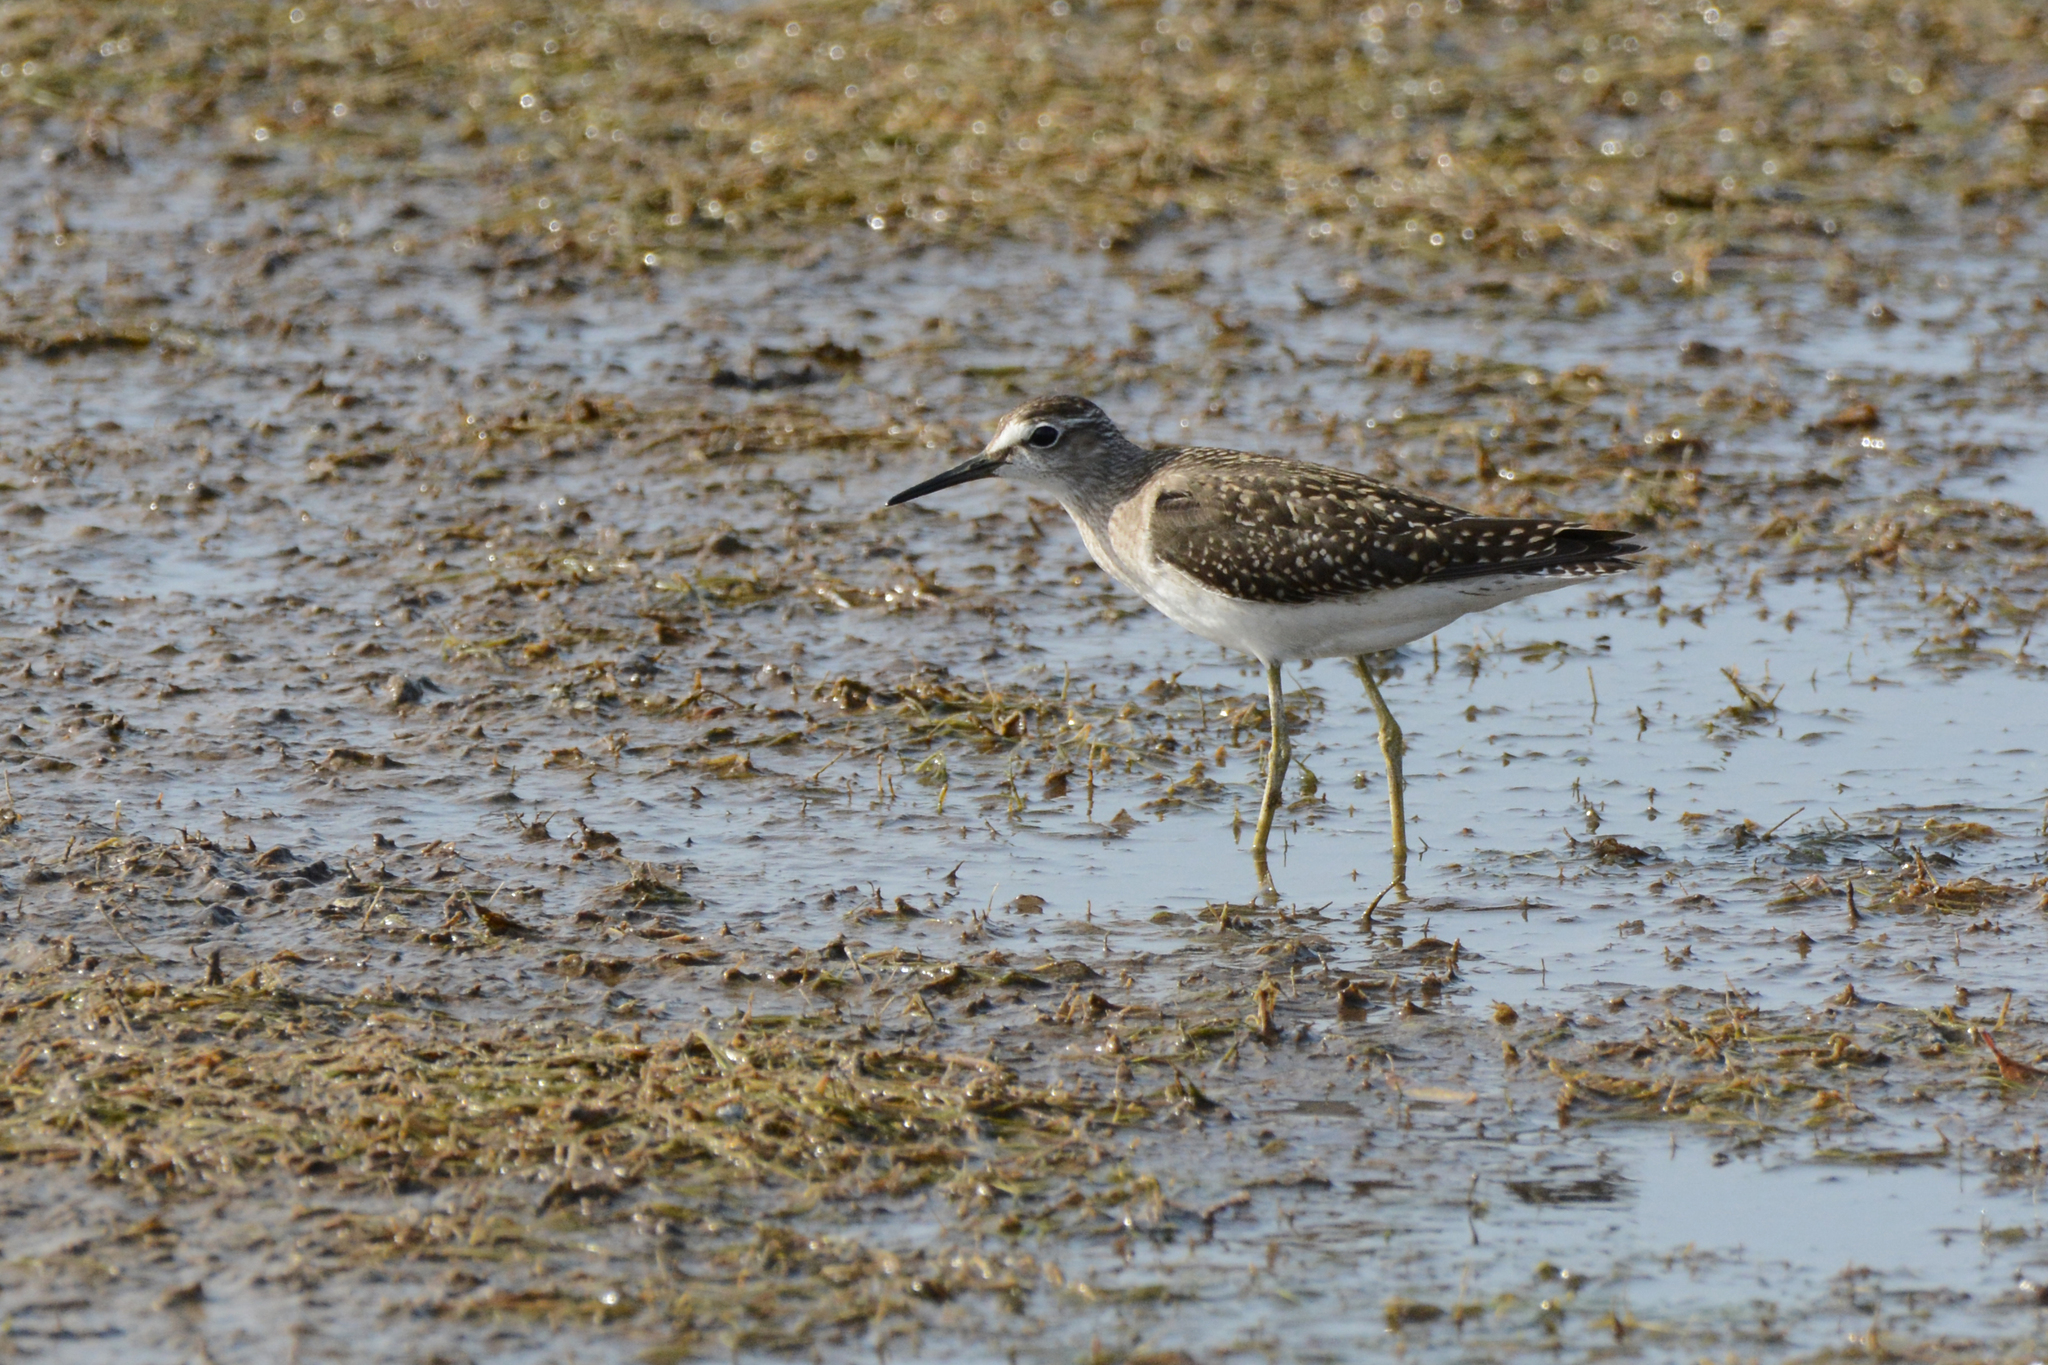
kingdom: Animalia
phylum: Chordata
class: Aves
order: Charadriiformes
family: Scolopacidae
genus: Tringa
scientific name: Tringa glareola
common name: Wood sandpiper
